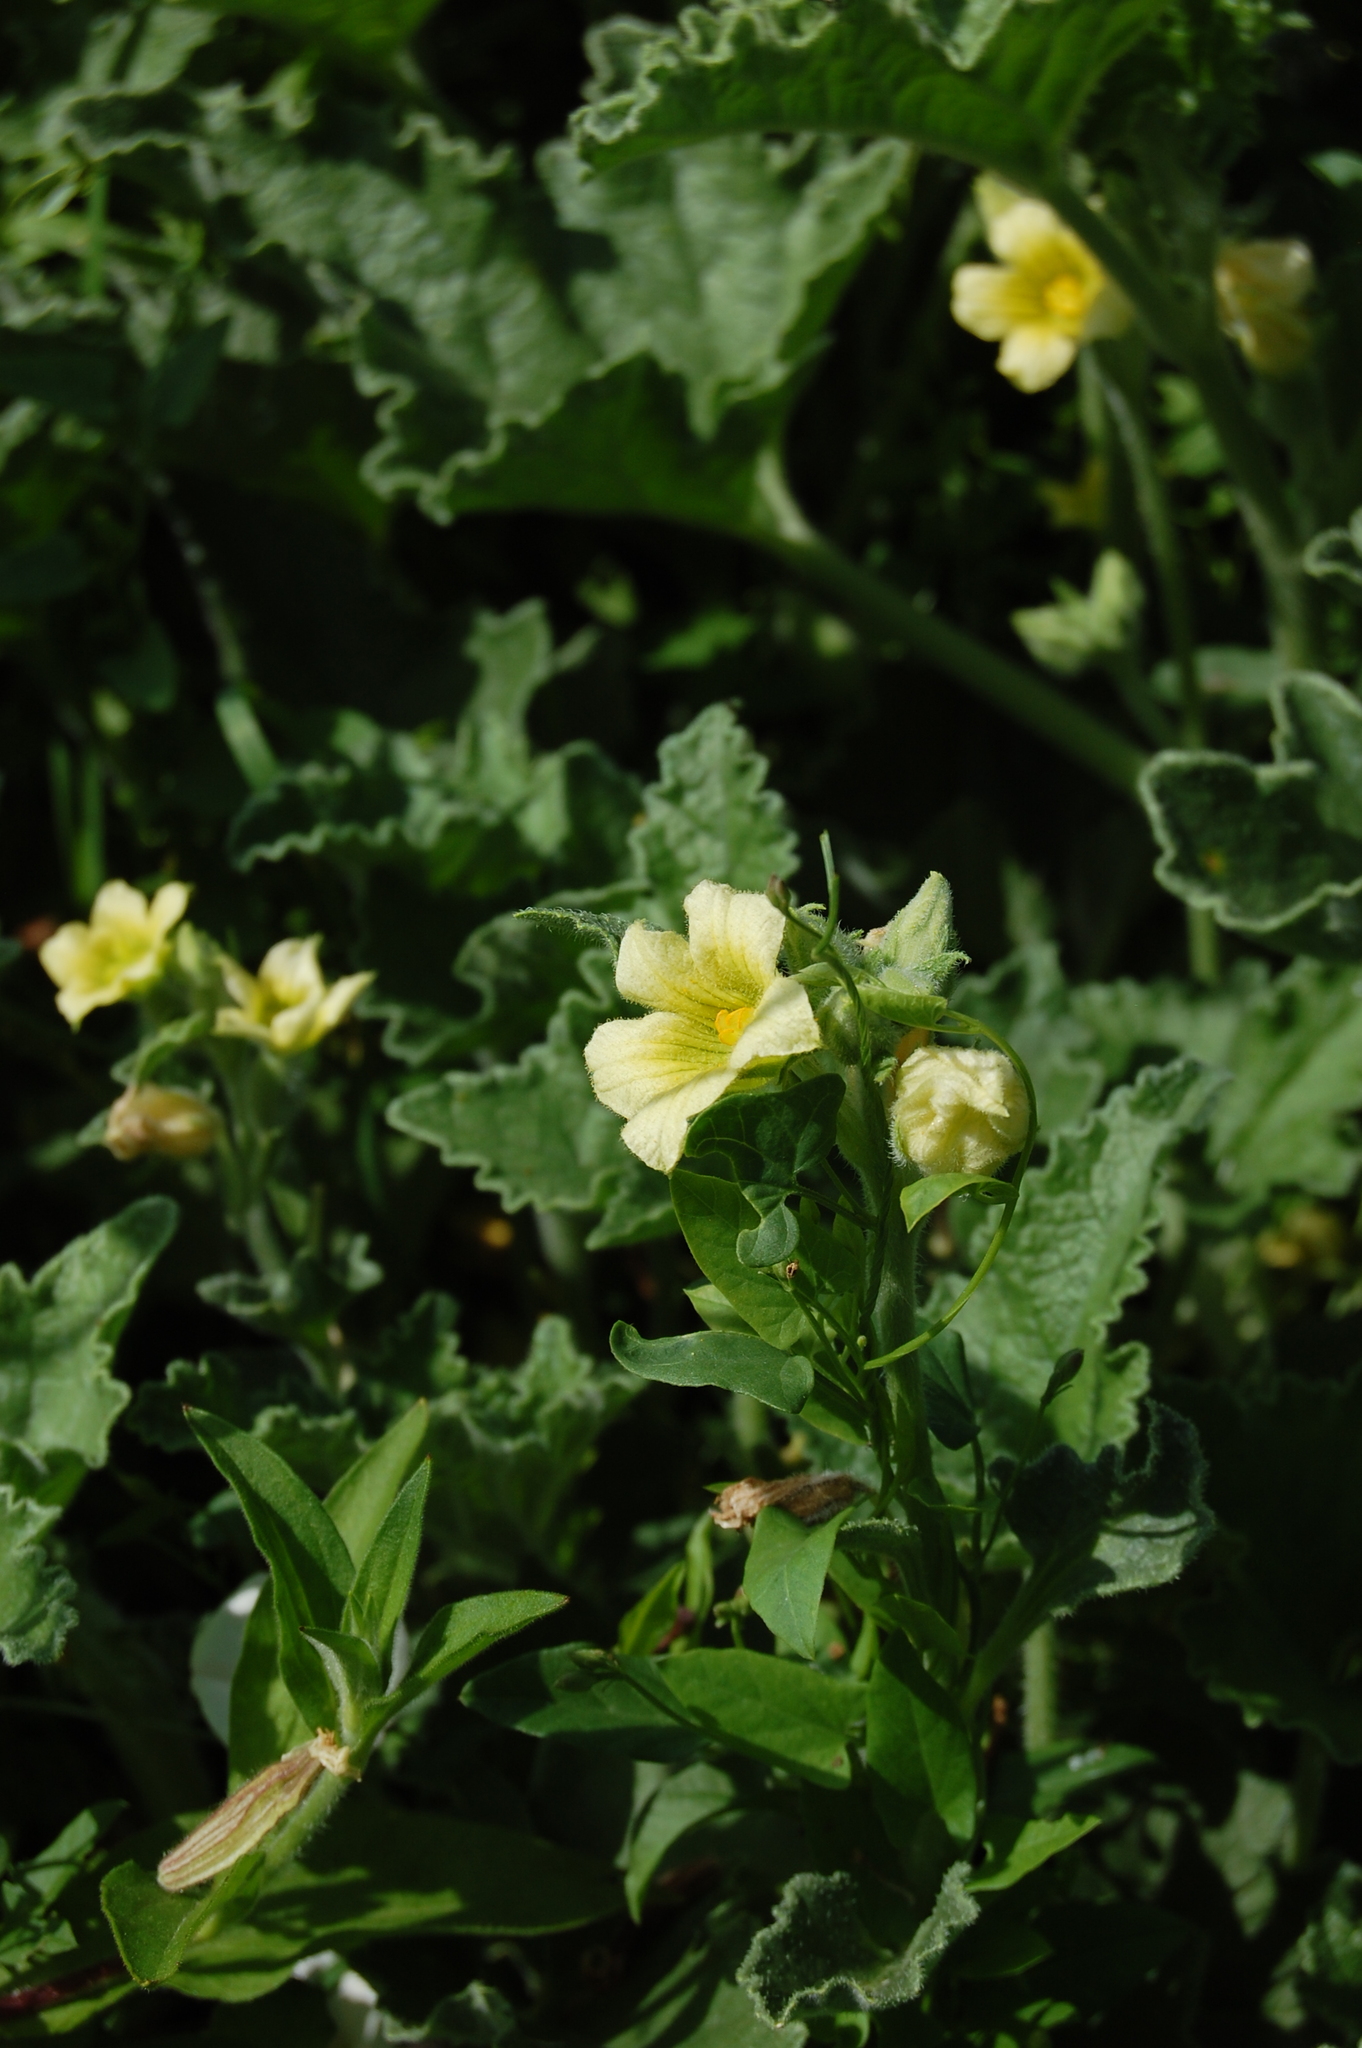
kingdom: Plantae
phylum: Tracheophyta
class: Magnoliopsida
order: Cucurbitales
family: Cucurbitaceae
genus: Ecballium
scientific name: Ecballium elaterium
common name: Squirting cucumber
